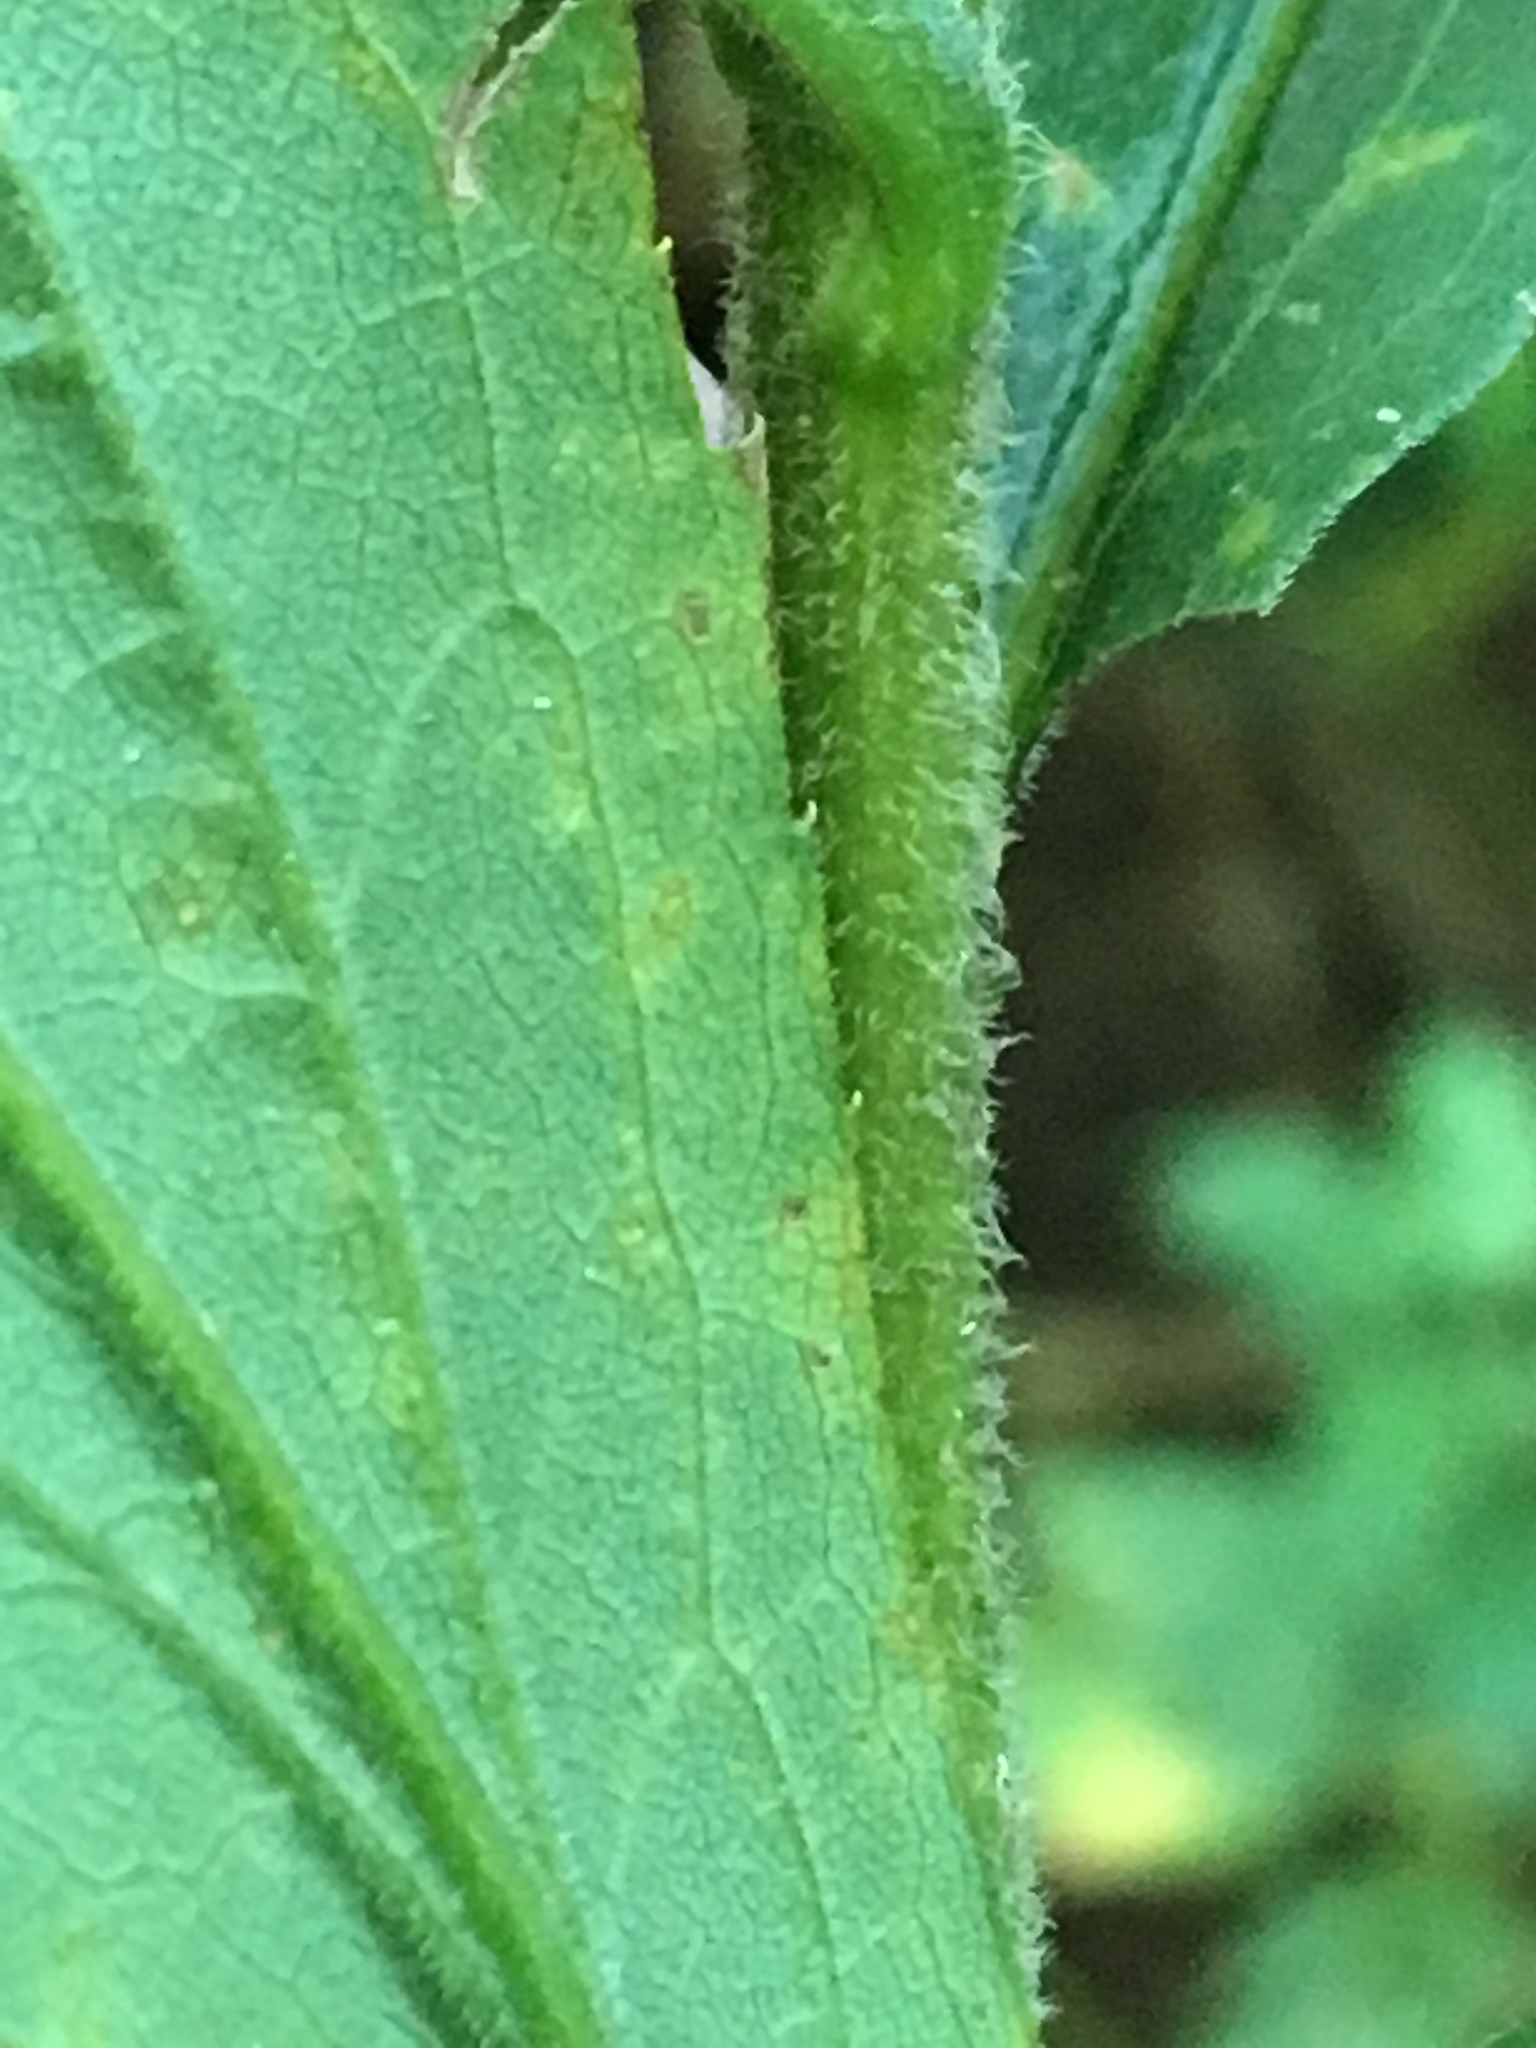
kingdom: Plantae
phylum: Tracheophyta
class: Magnoliopsida
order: Asterales
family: Asteraceae
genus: Solidago
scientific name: Solidago altissima
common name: Late goldenrod
